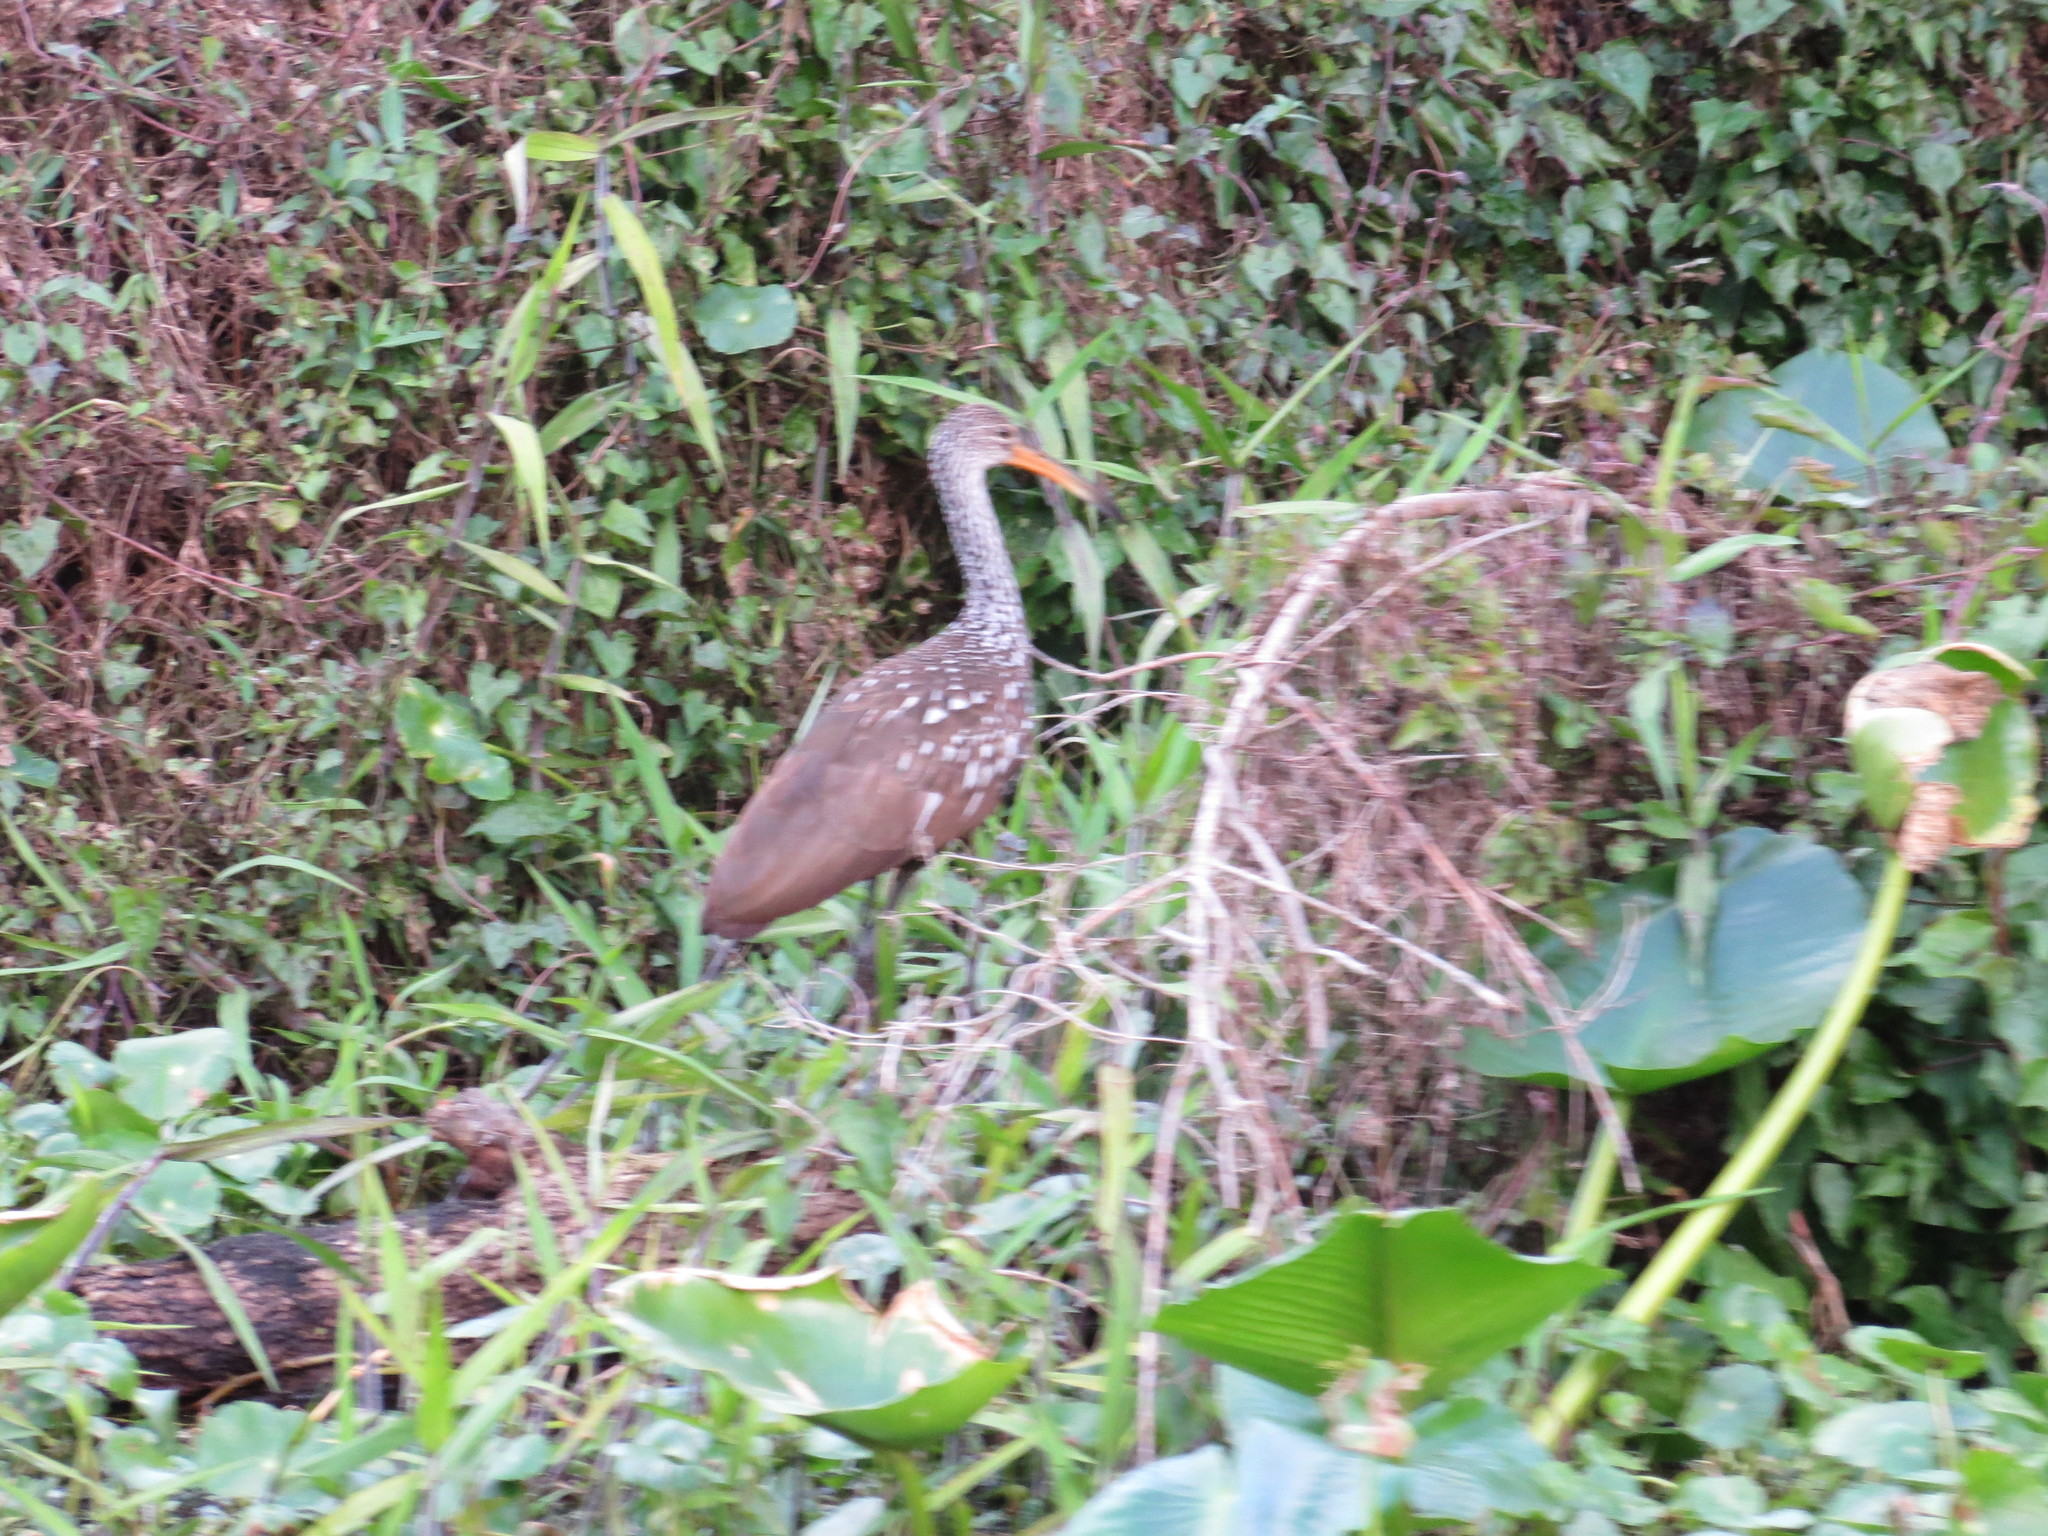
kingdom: Animalia
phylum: Chordata
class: Aves
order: Gruiformes
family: Aramidae
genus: Aramus
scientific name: Aramus guarauna
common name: Limpkin
